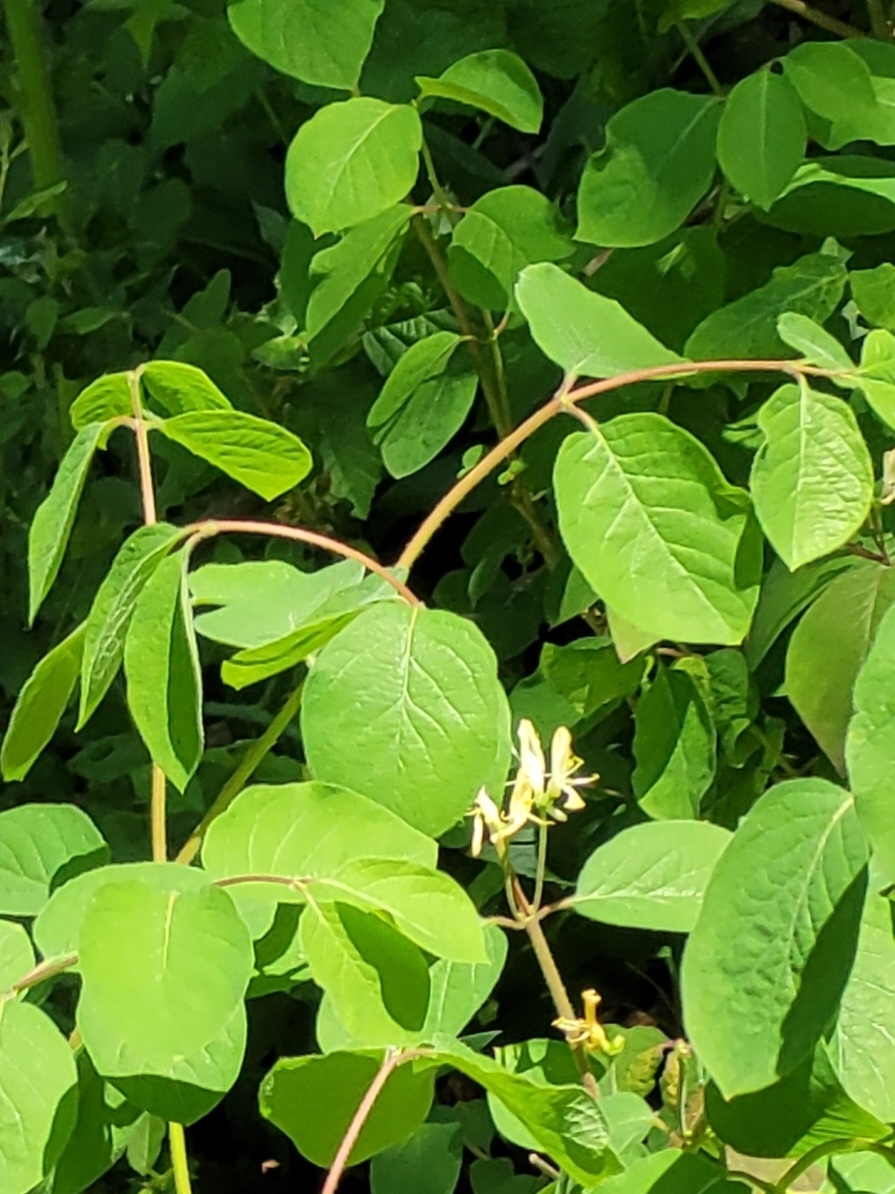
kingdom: Plantae
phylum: Tracheophyta
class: Magnoliopsida
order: Dipsacales
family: Caprifoliaceae
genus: Lonicera
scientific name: Lonicera xylosteum
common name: Fly honeysuckle
